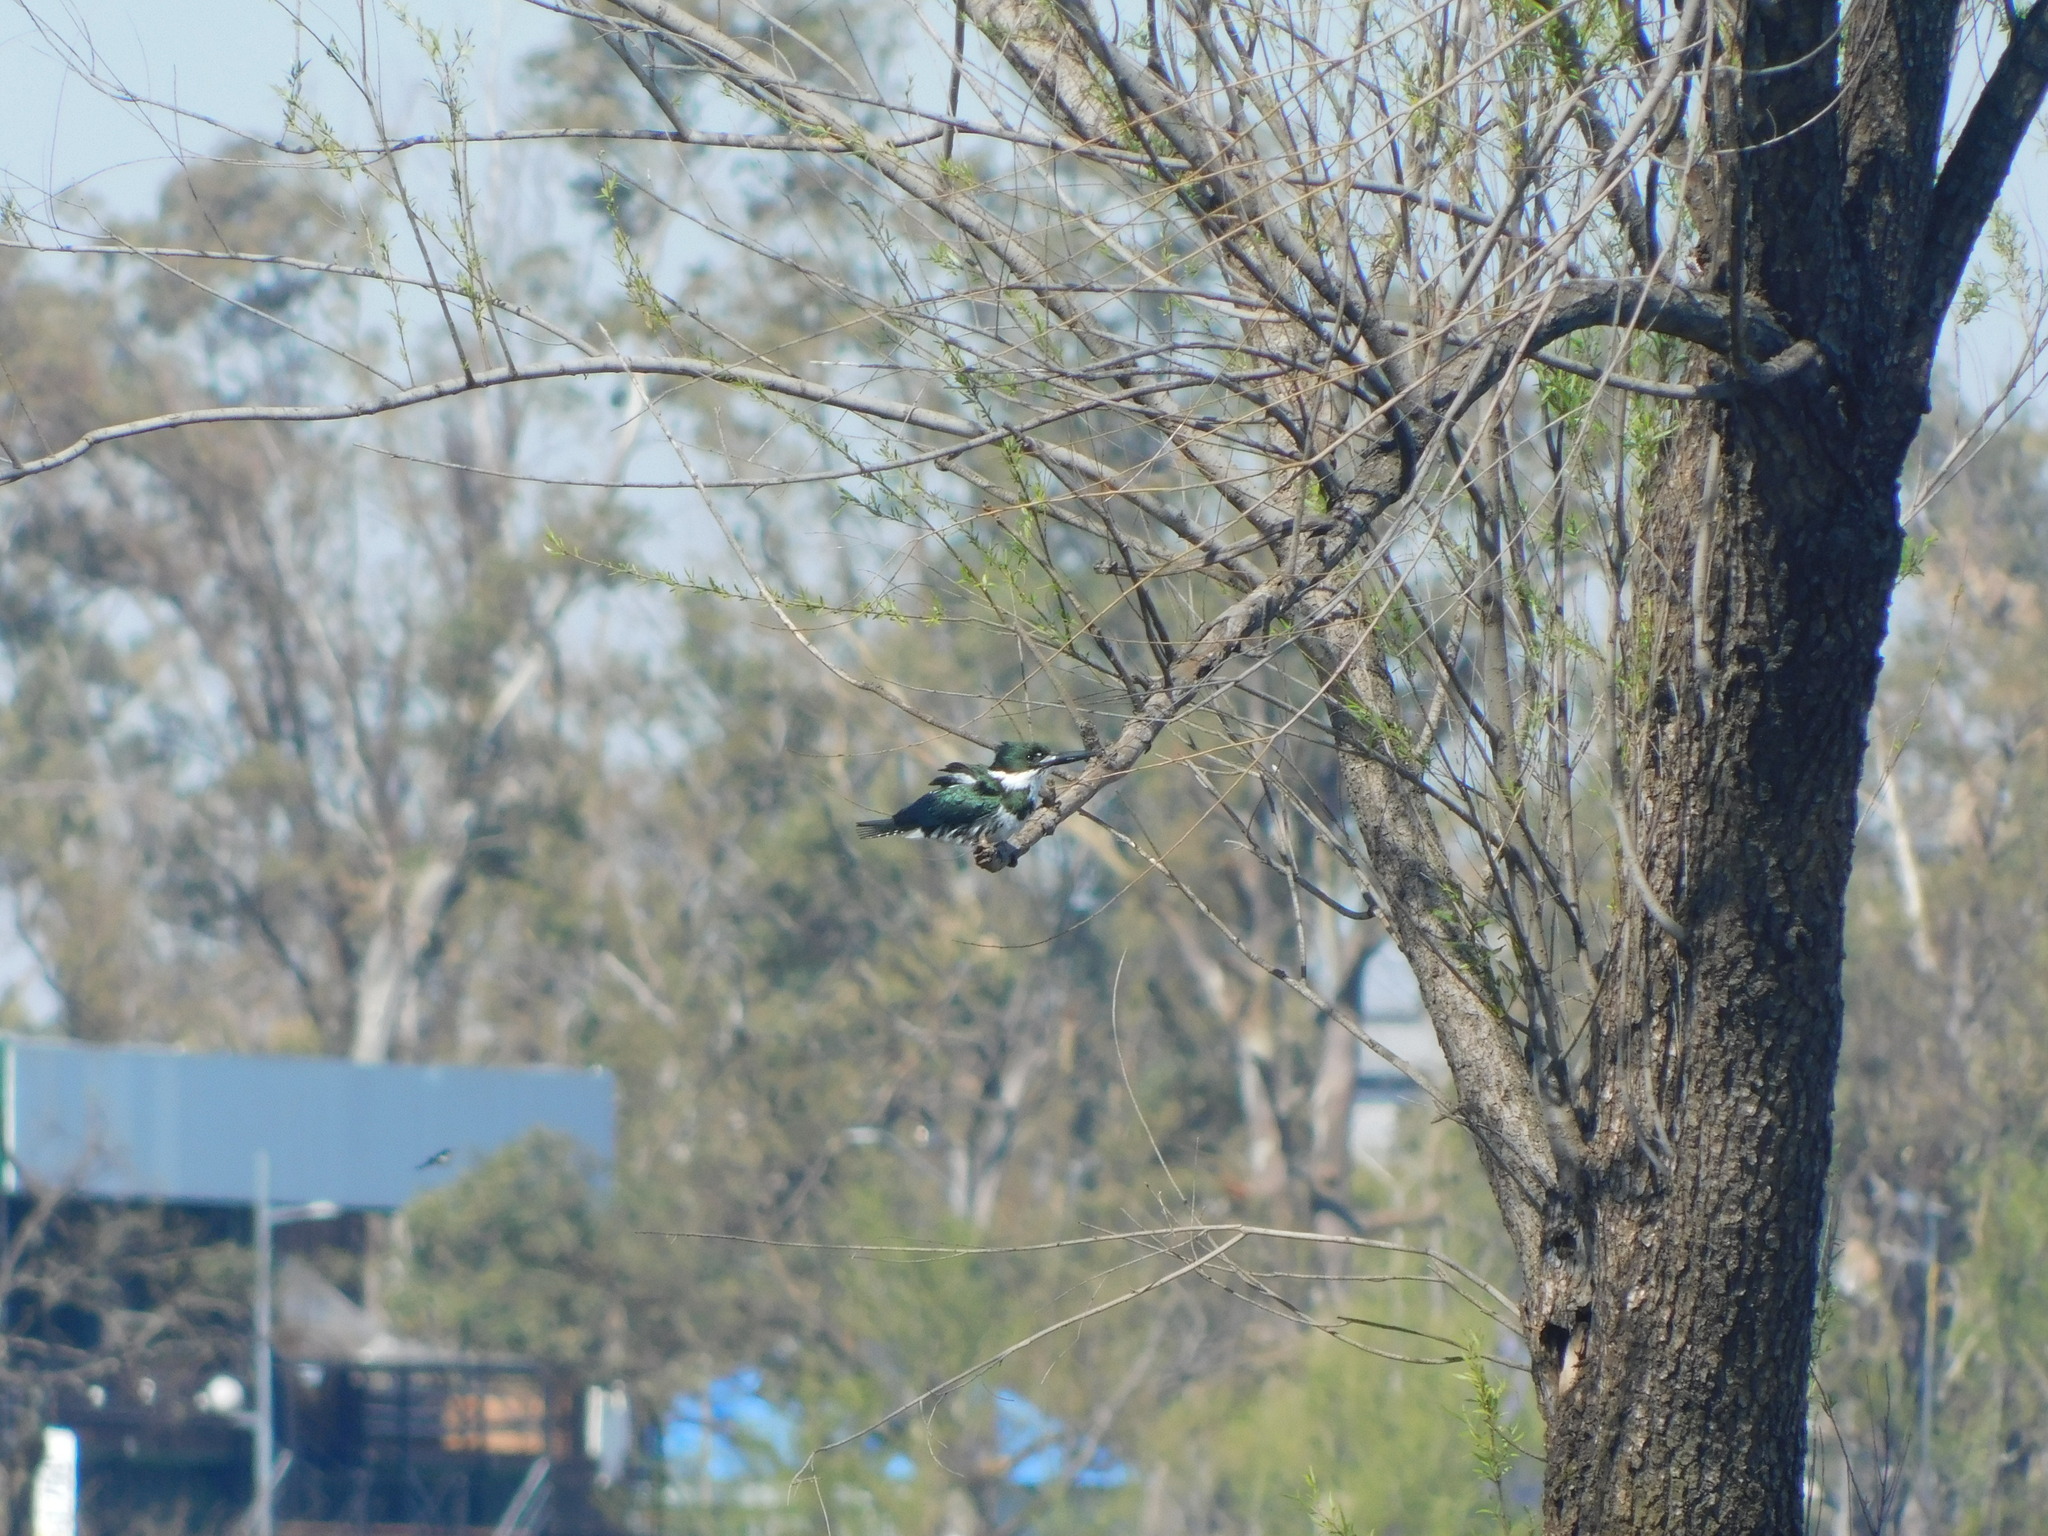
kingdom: Animalia
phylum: Chordata
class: Aves
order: Coraciiformes
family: Alcedinidae
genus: Chloroceryle
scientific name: Chloroceryle amazona
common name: Amazon kingfisher
